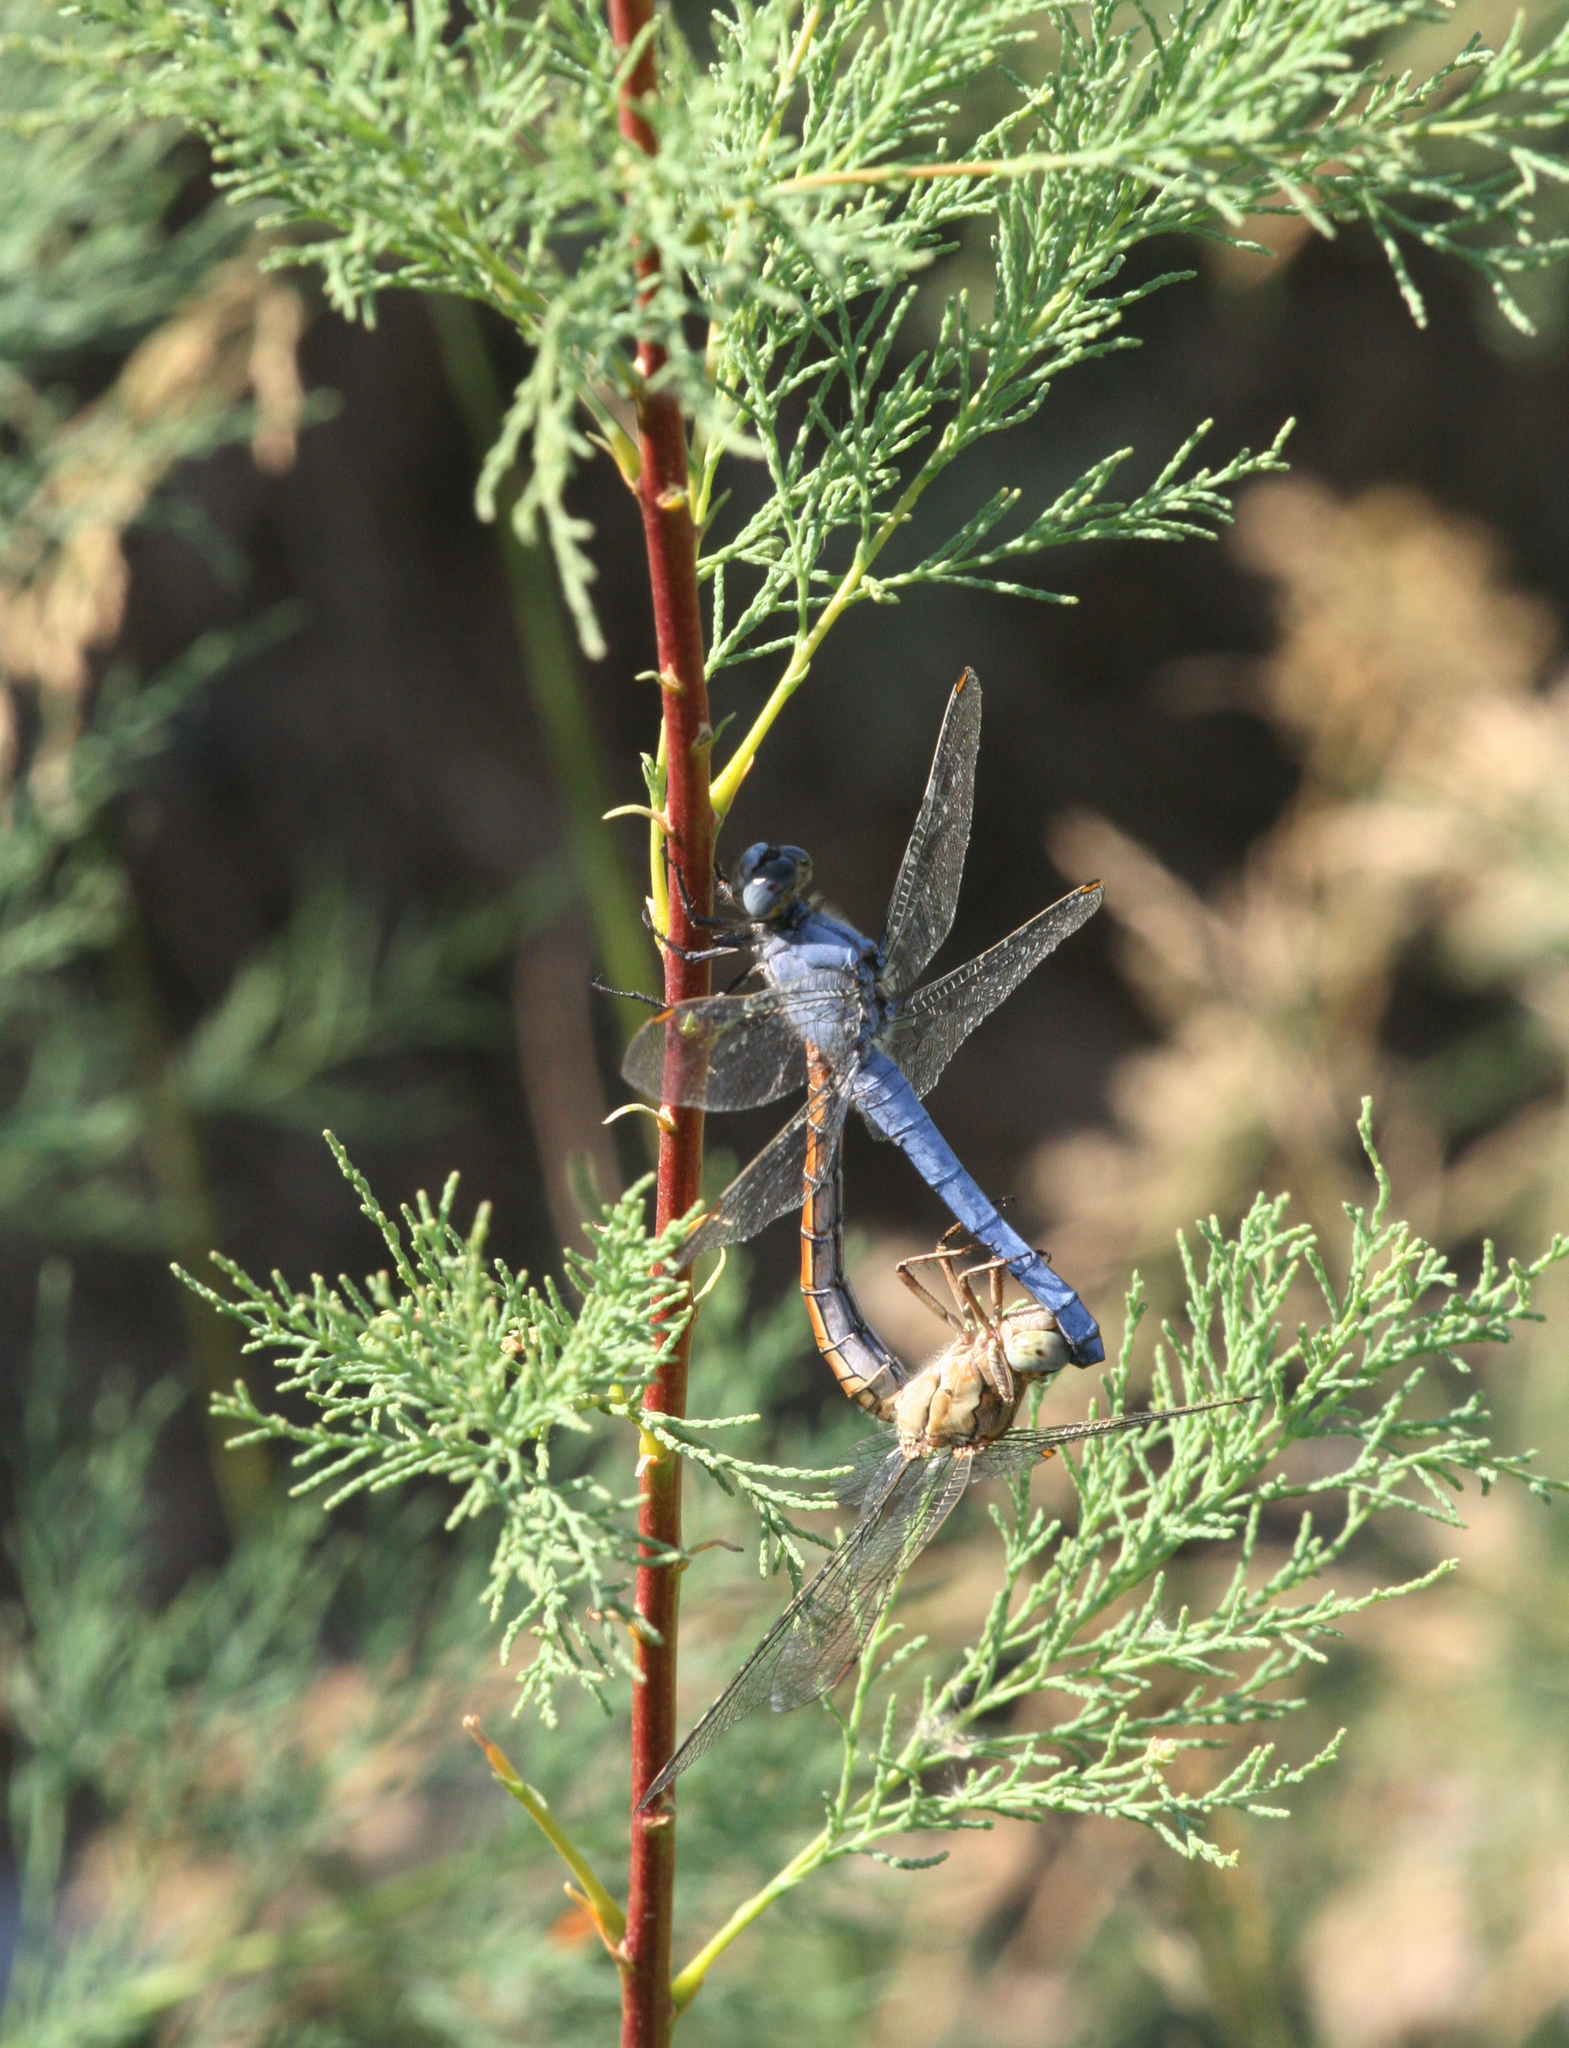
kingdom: Animalia
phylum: Arthropoda
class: Insecta
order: Odonata
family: Libellulidae
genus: Orthetrum
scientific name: Orthetrum brunneum
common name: Southern skimmer
